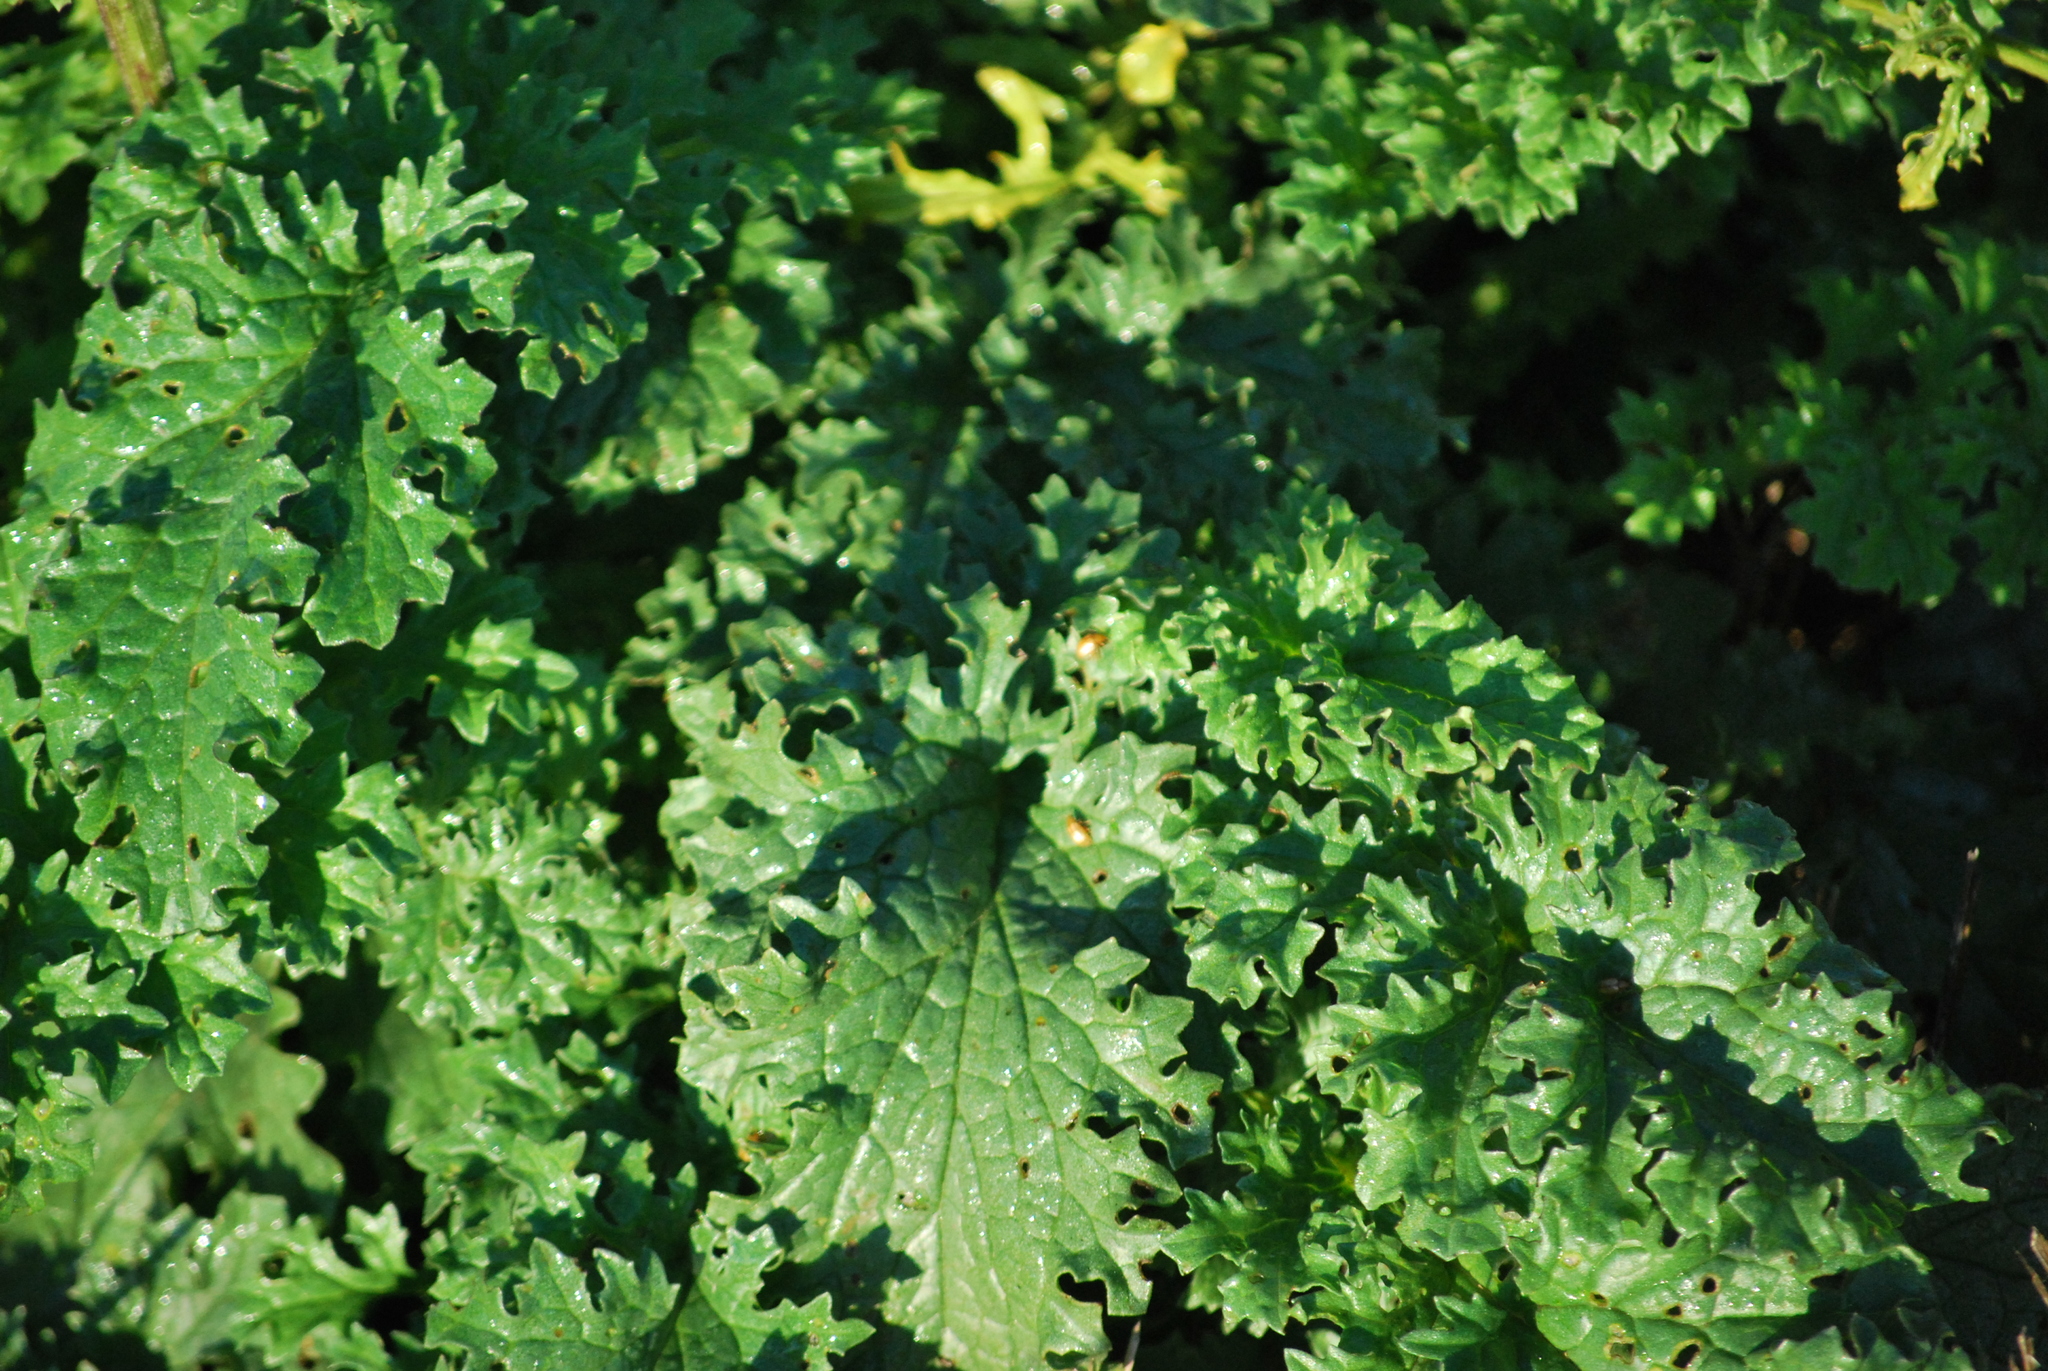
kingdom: Animalia
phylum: Arthropoda
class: Insecta
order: Coleoptera
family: Chrysomelidae
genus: Longitarsus
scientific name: Longitarsus jacobaeae
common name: Tansy ragwort flea beetle
